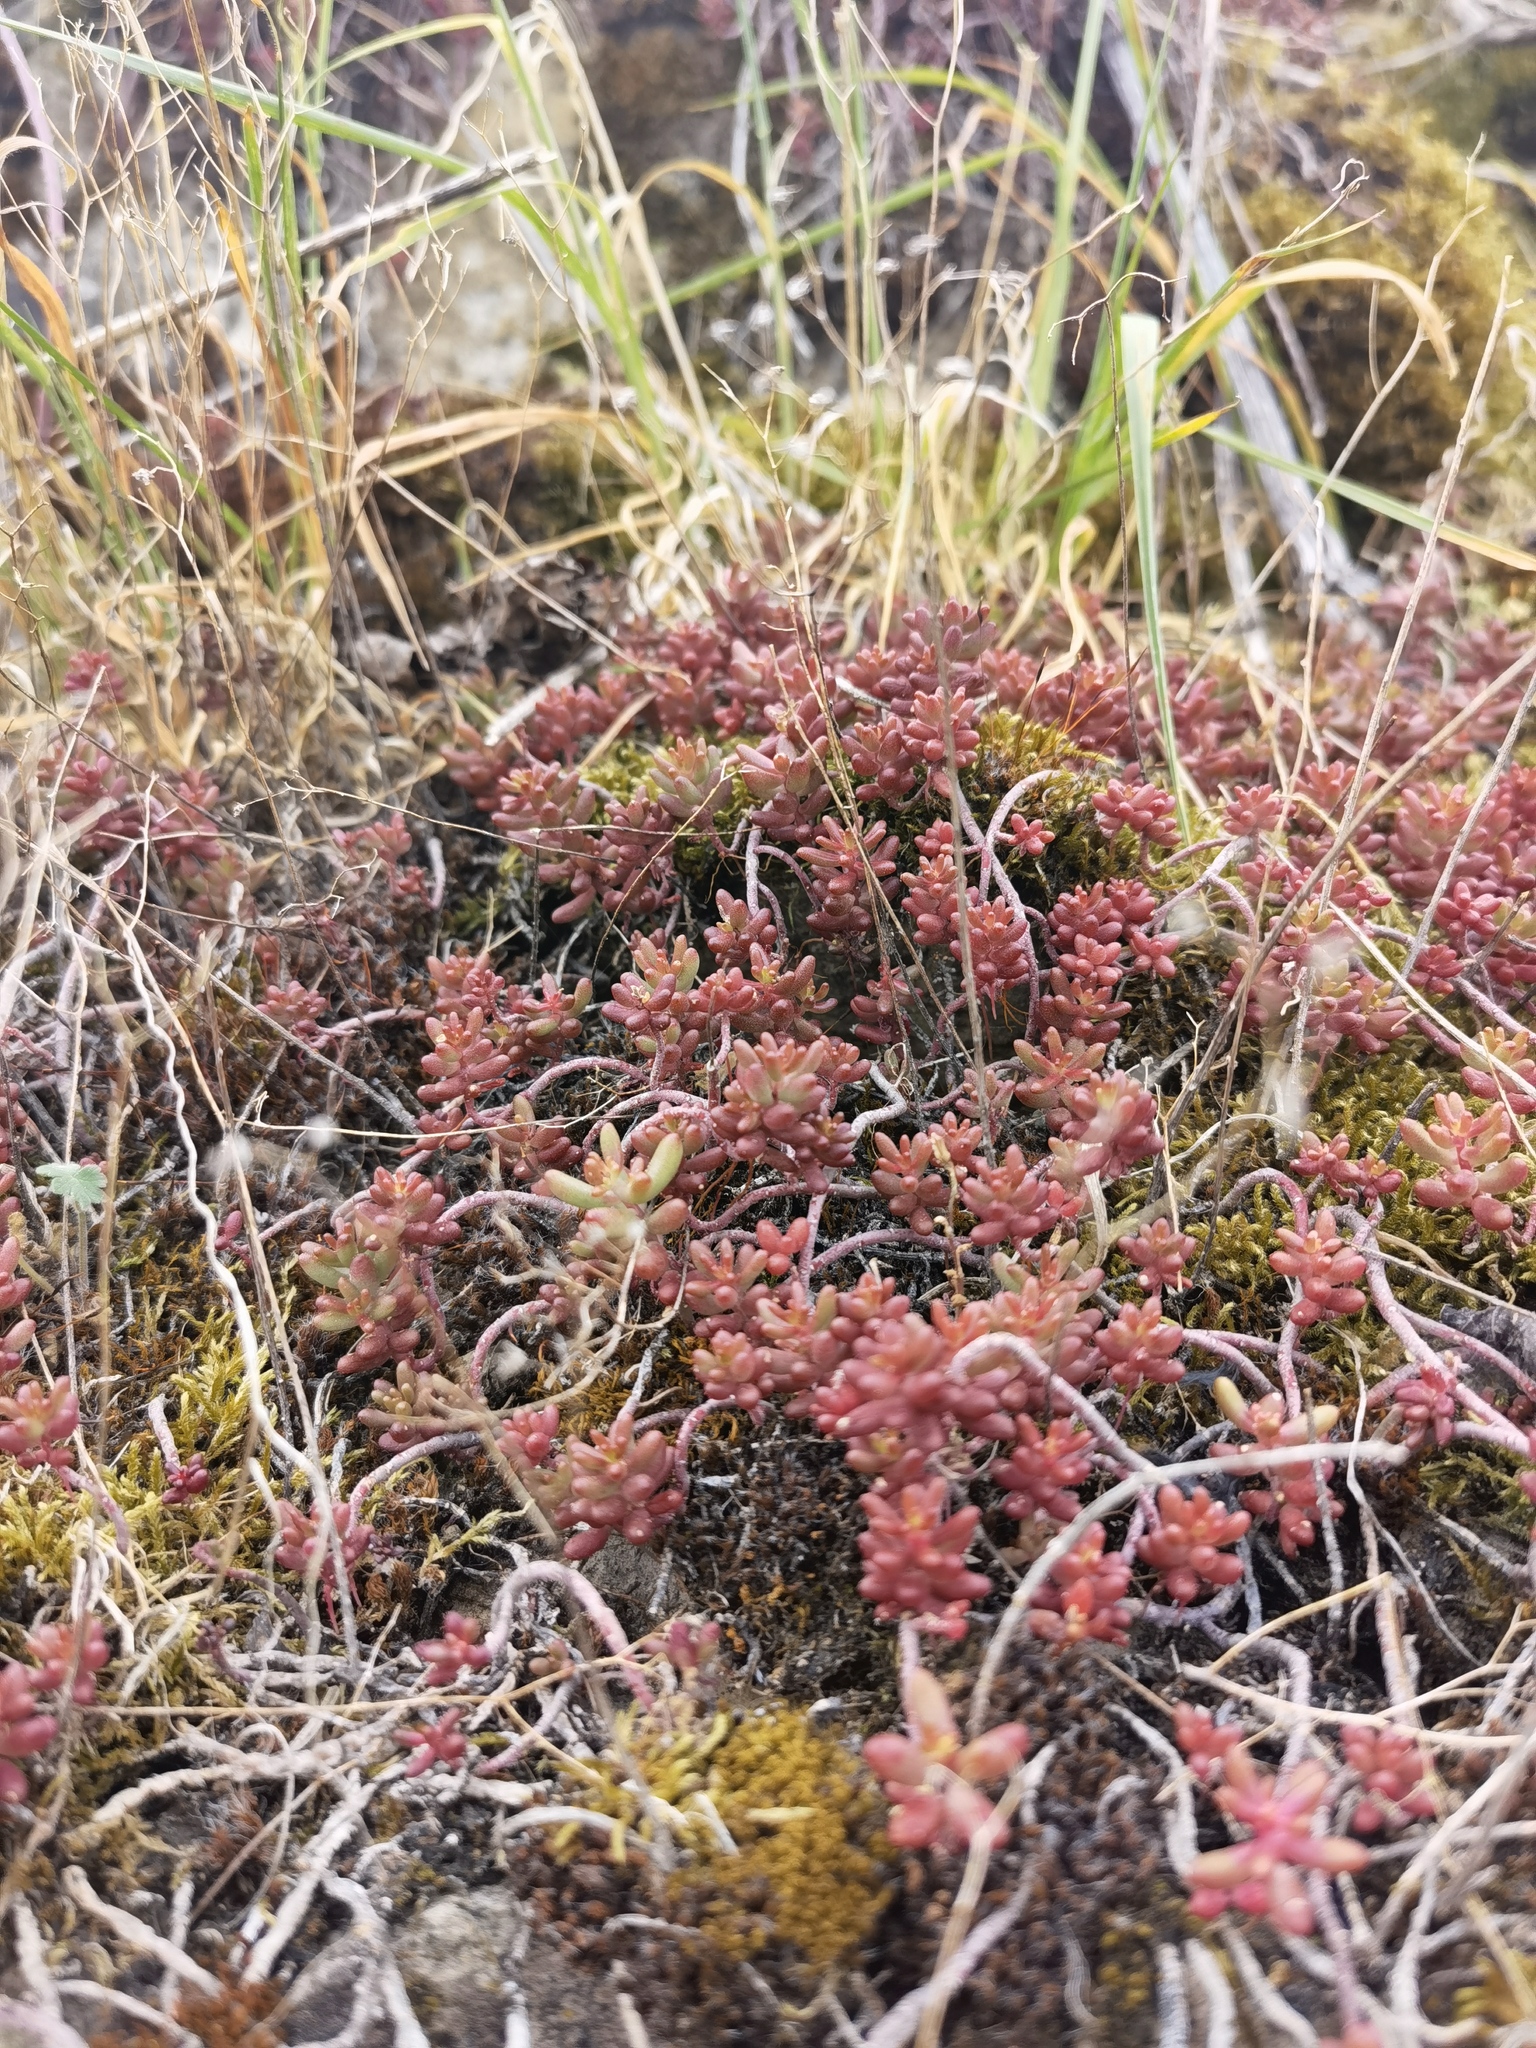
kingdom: Plantae
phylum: Tracheophyta
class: Magnoliopsida
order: Saxifragales
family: Crassulaceae
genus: Sedum
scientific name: Sedum album
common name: White stonecrop
